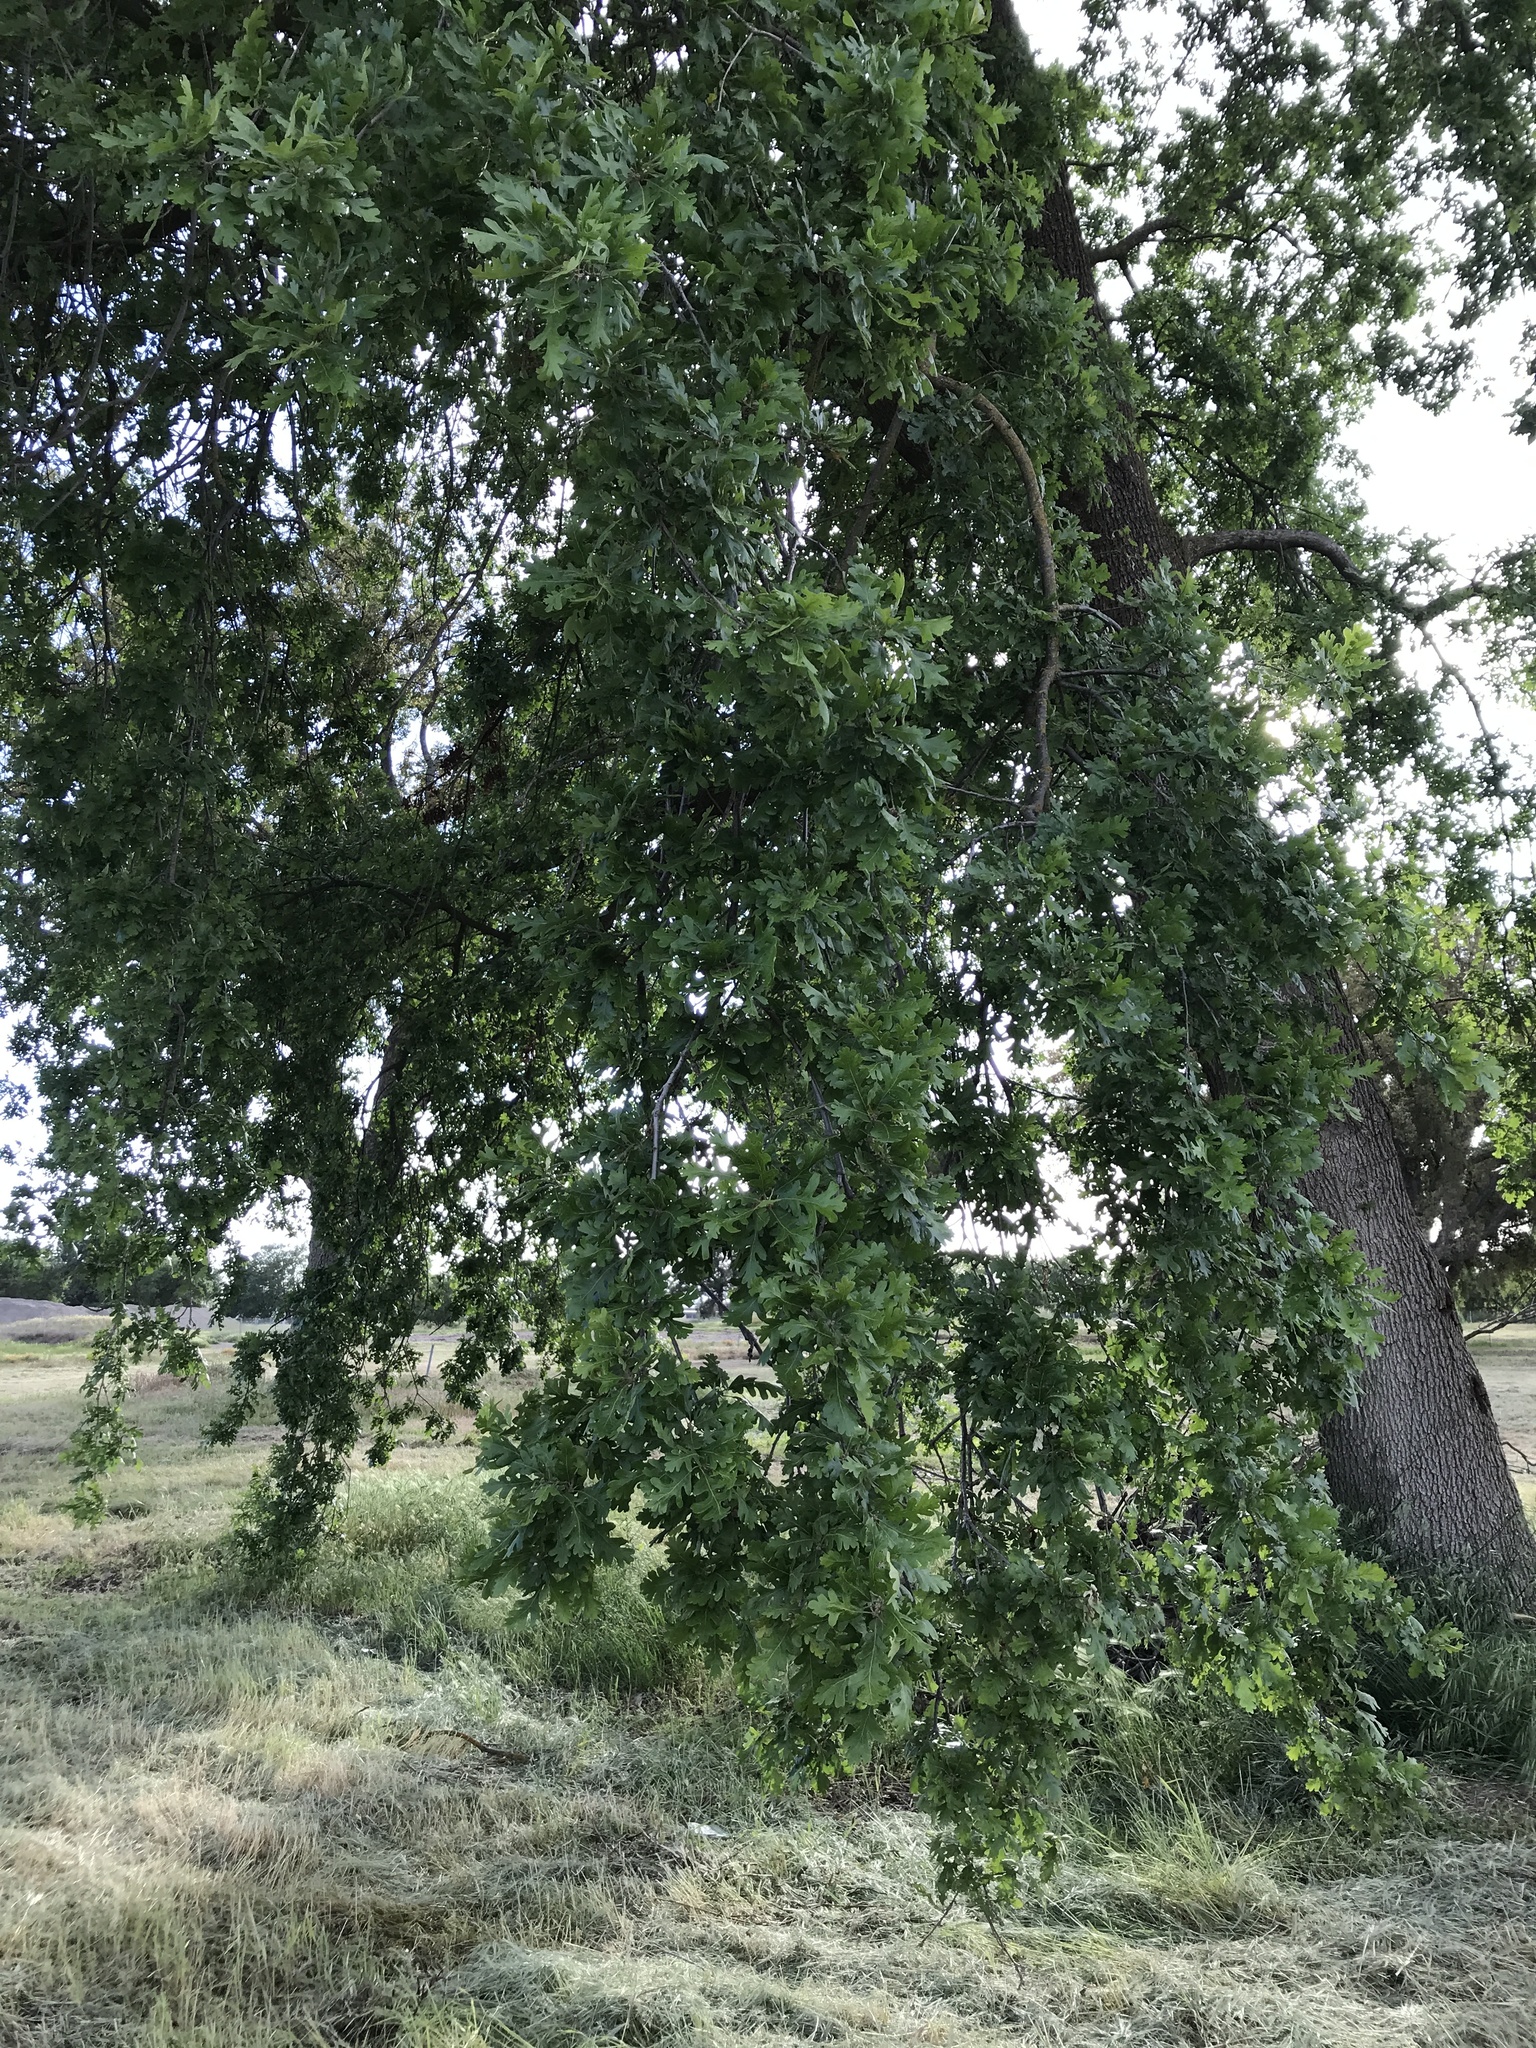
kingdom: Plantae
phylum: Tracheophyta
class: Magnoliopsida
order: Fagales
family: Fagaceae
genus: Quercus
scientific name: Quercus lobata
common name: Valley oak
